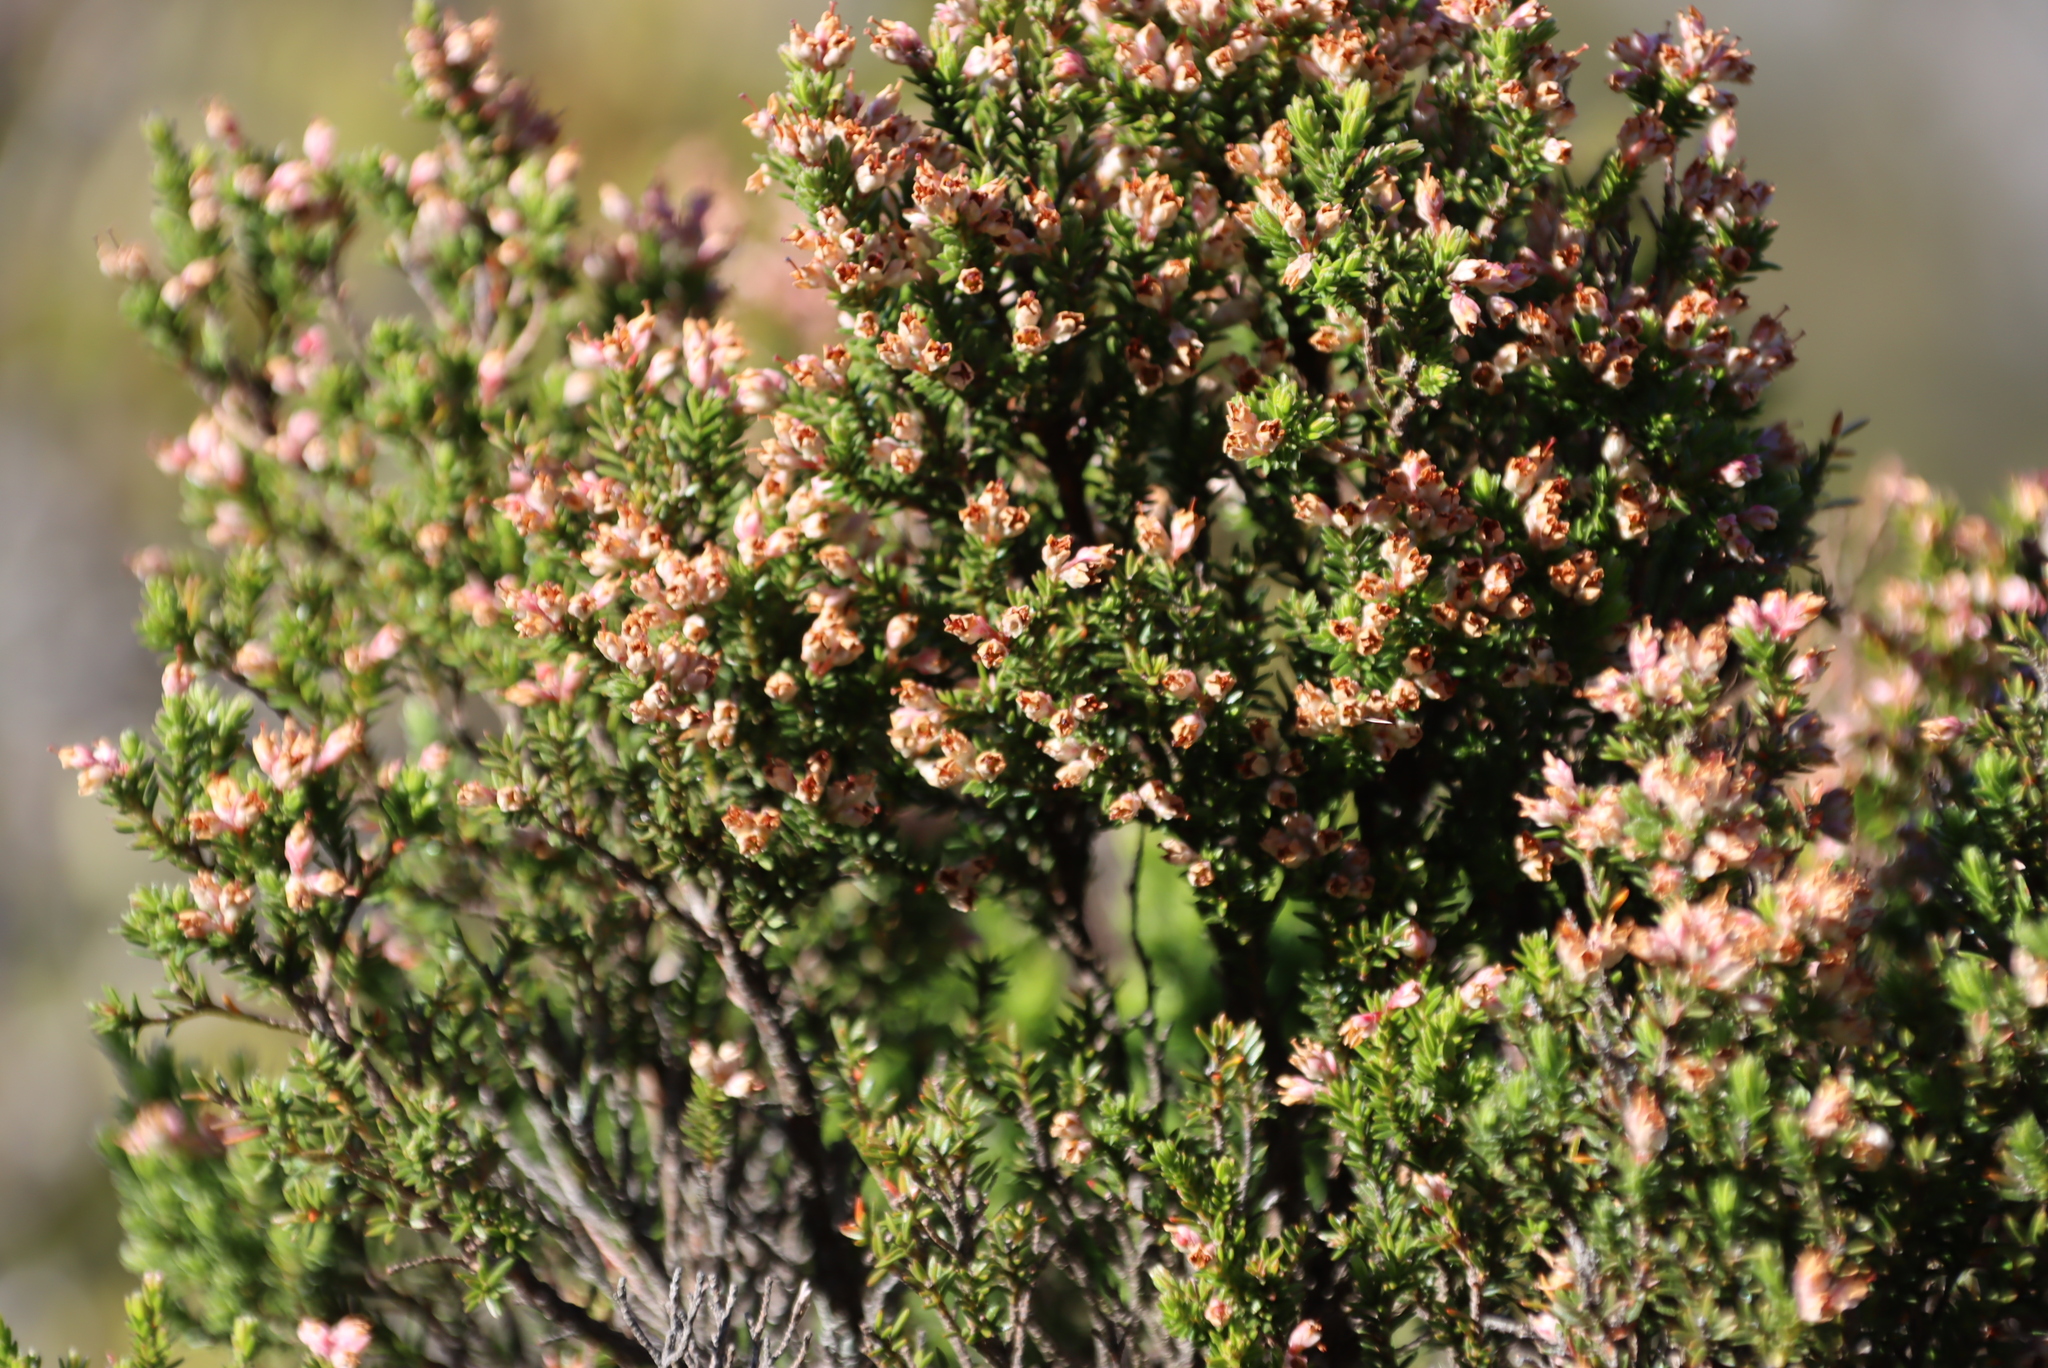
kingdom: Plantae
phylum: Tracheophyta
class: Magnoliopsida
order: Ericales
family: Ericaceae
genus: Erica
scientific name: Erica diosmifolia
